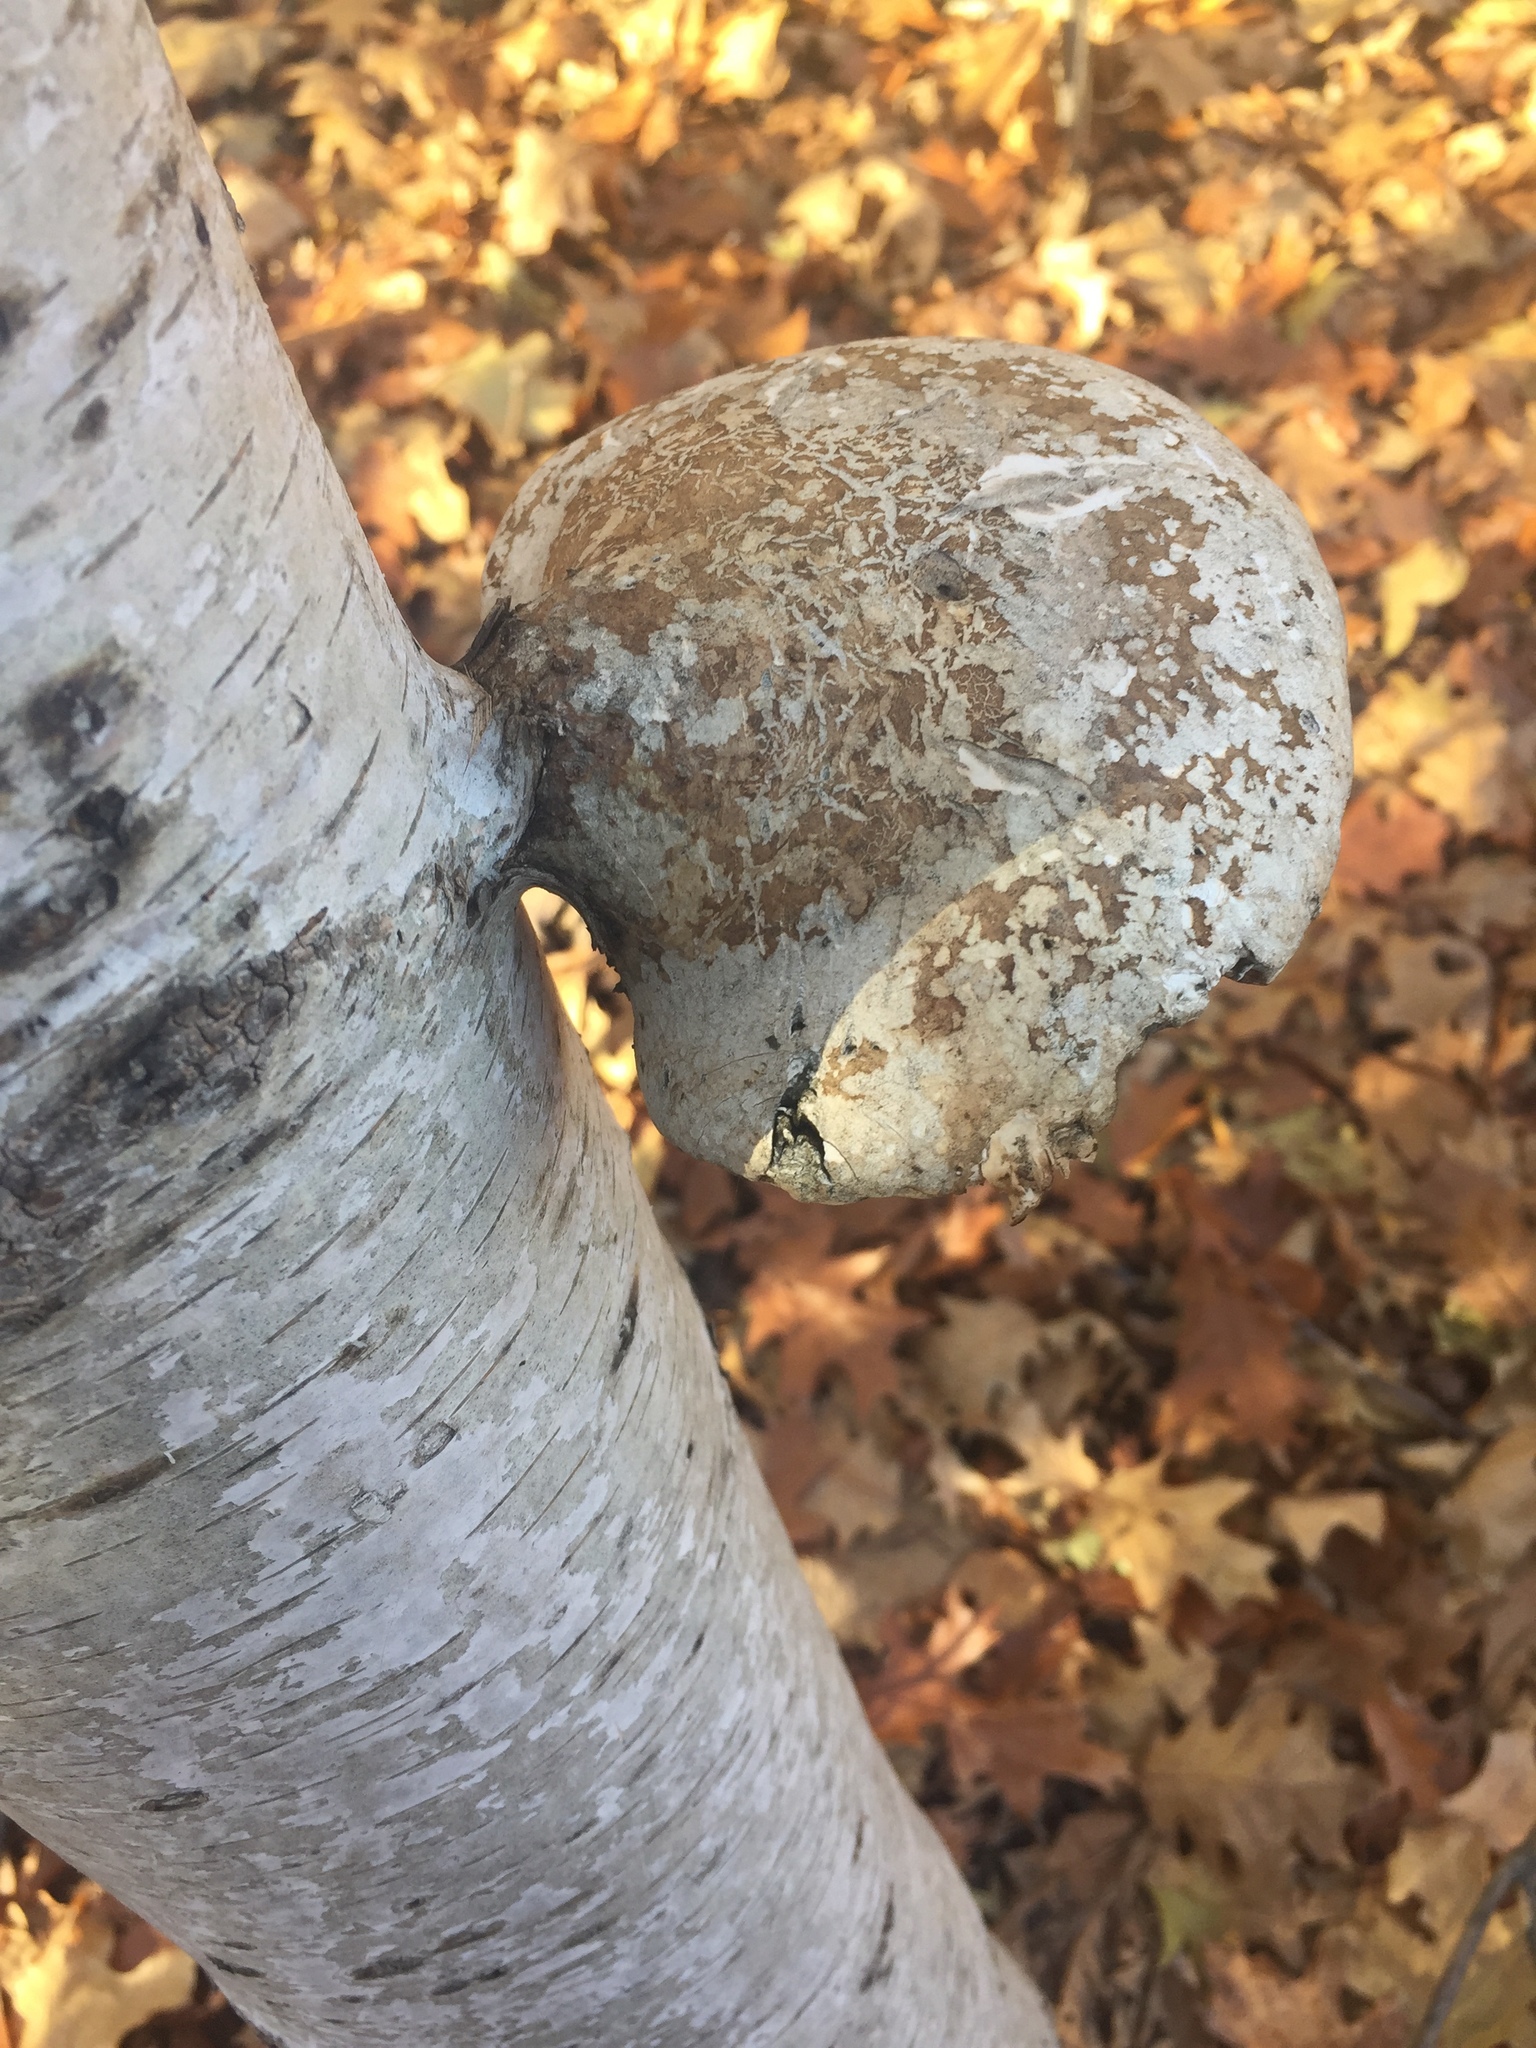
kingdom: Fungi
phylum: Basidiomycota
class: Agaricomycetes
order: Polyporales
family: Fomitopsidaceae
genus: Fomitopsis
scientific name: Fomitopsis betulina
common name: Birch polypore
